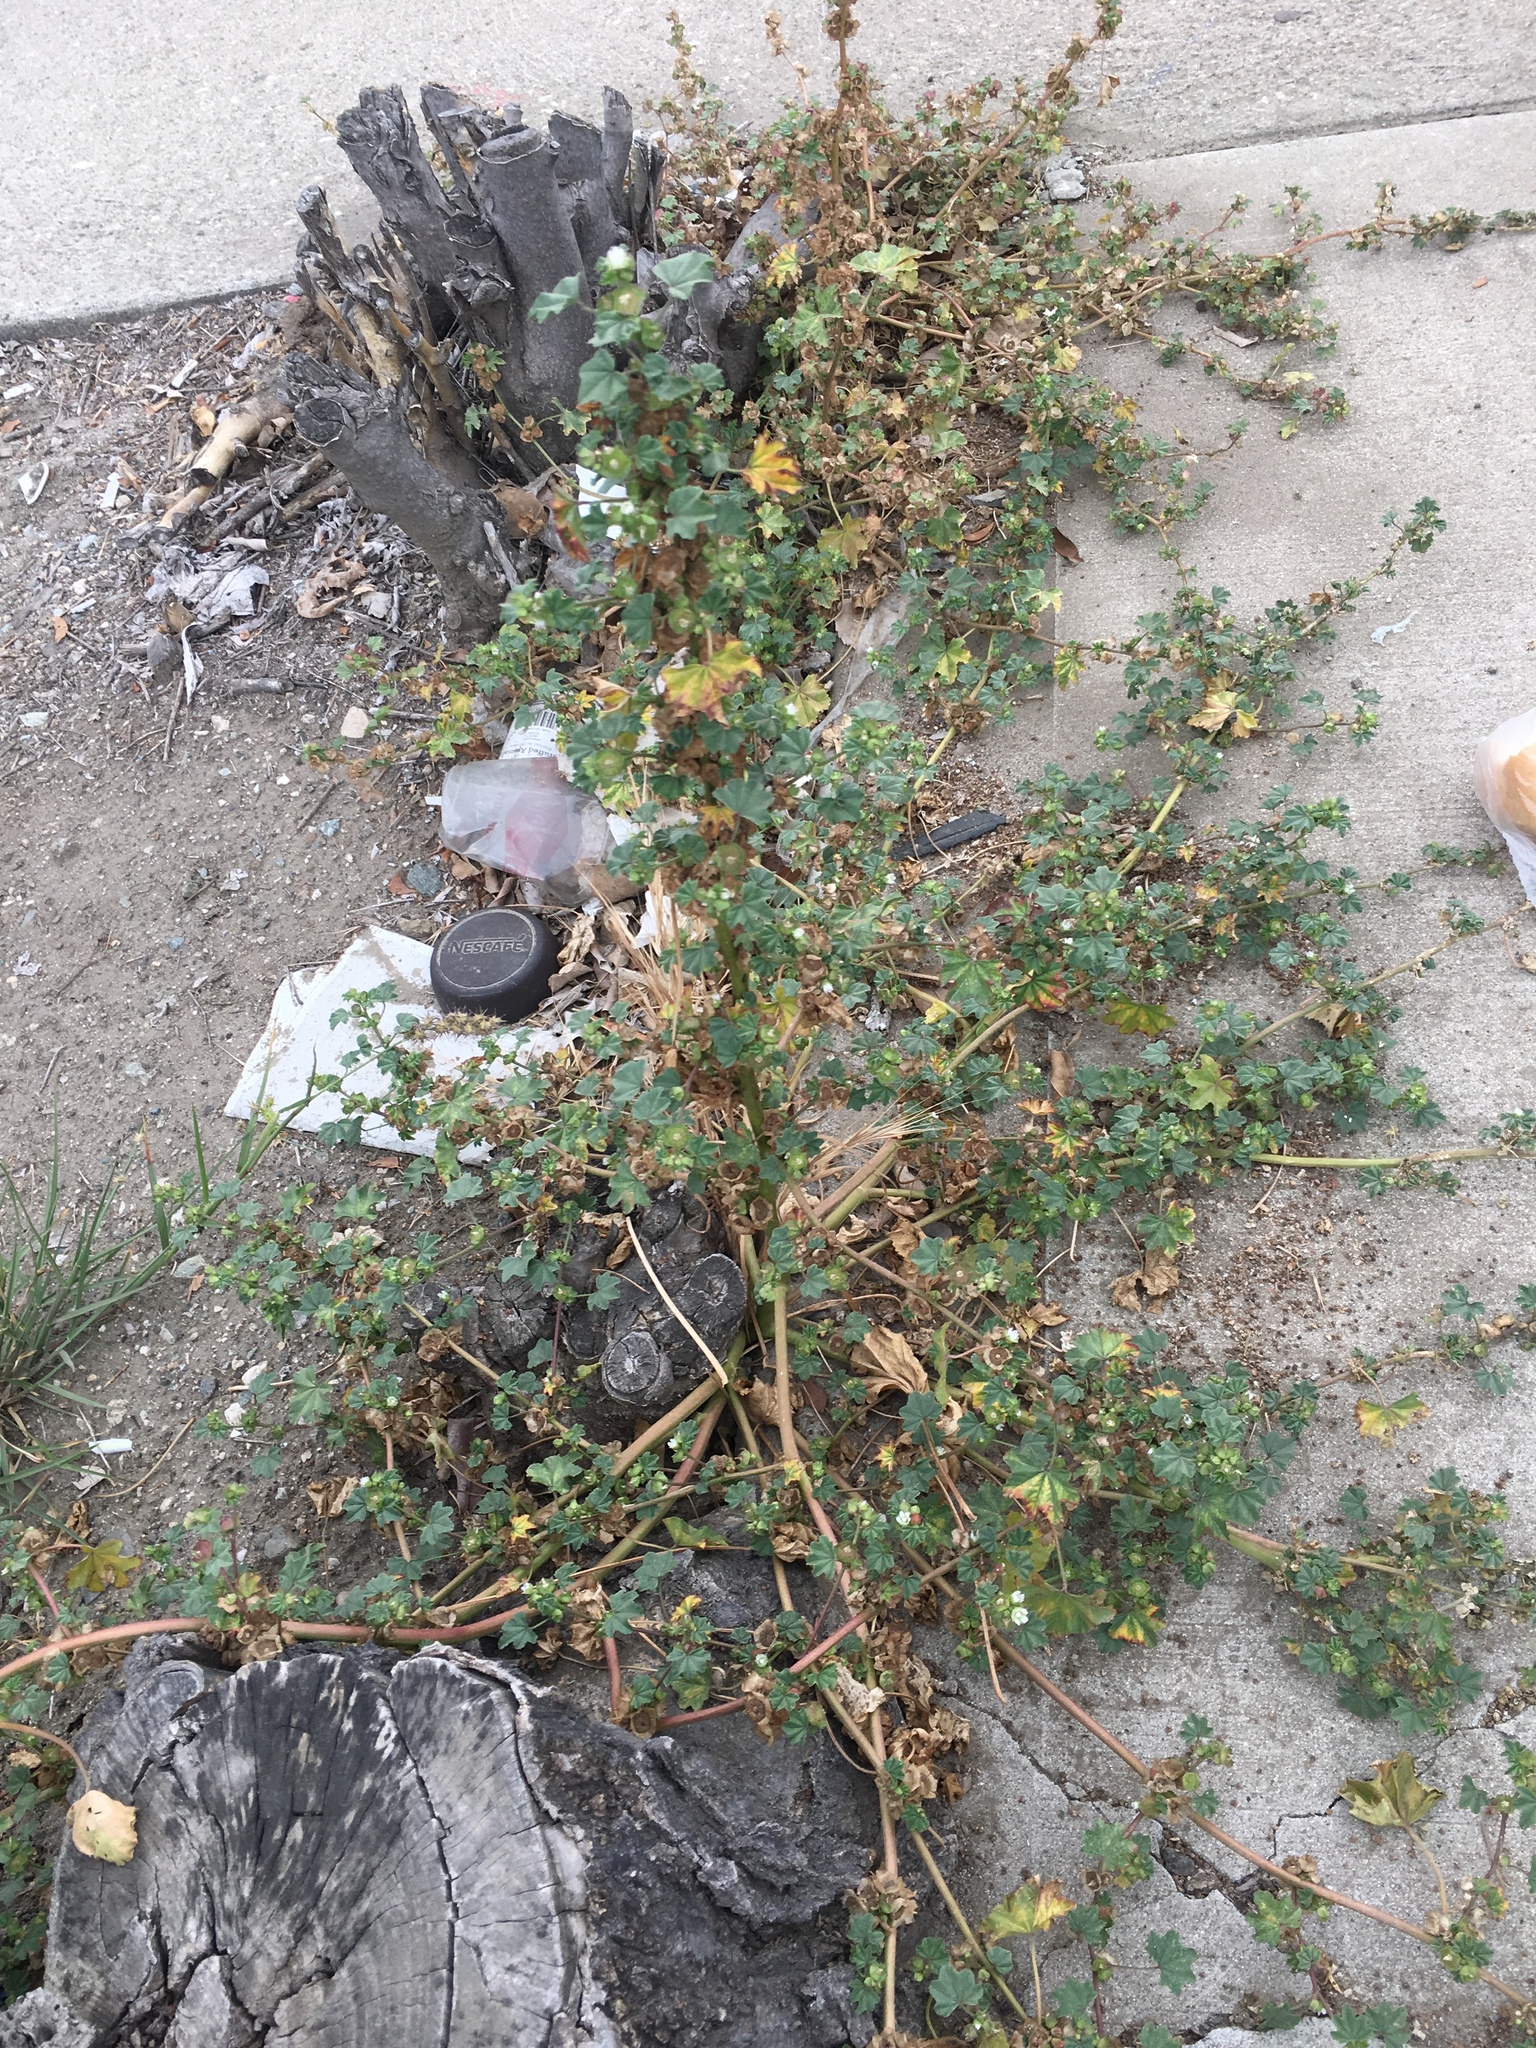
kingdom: Plantae
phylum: Tracheophyta
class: Magnoliopsida
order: Malvales
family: Malvaceae
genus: Malva
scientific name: Malva parviflora
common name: Least mallow
